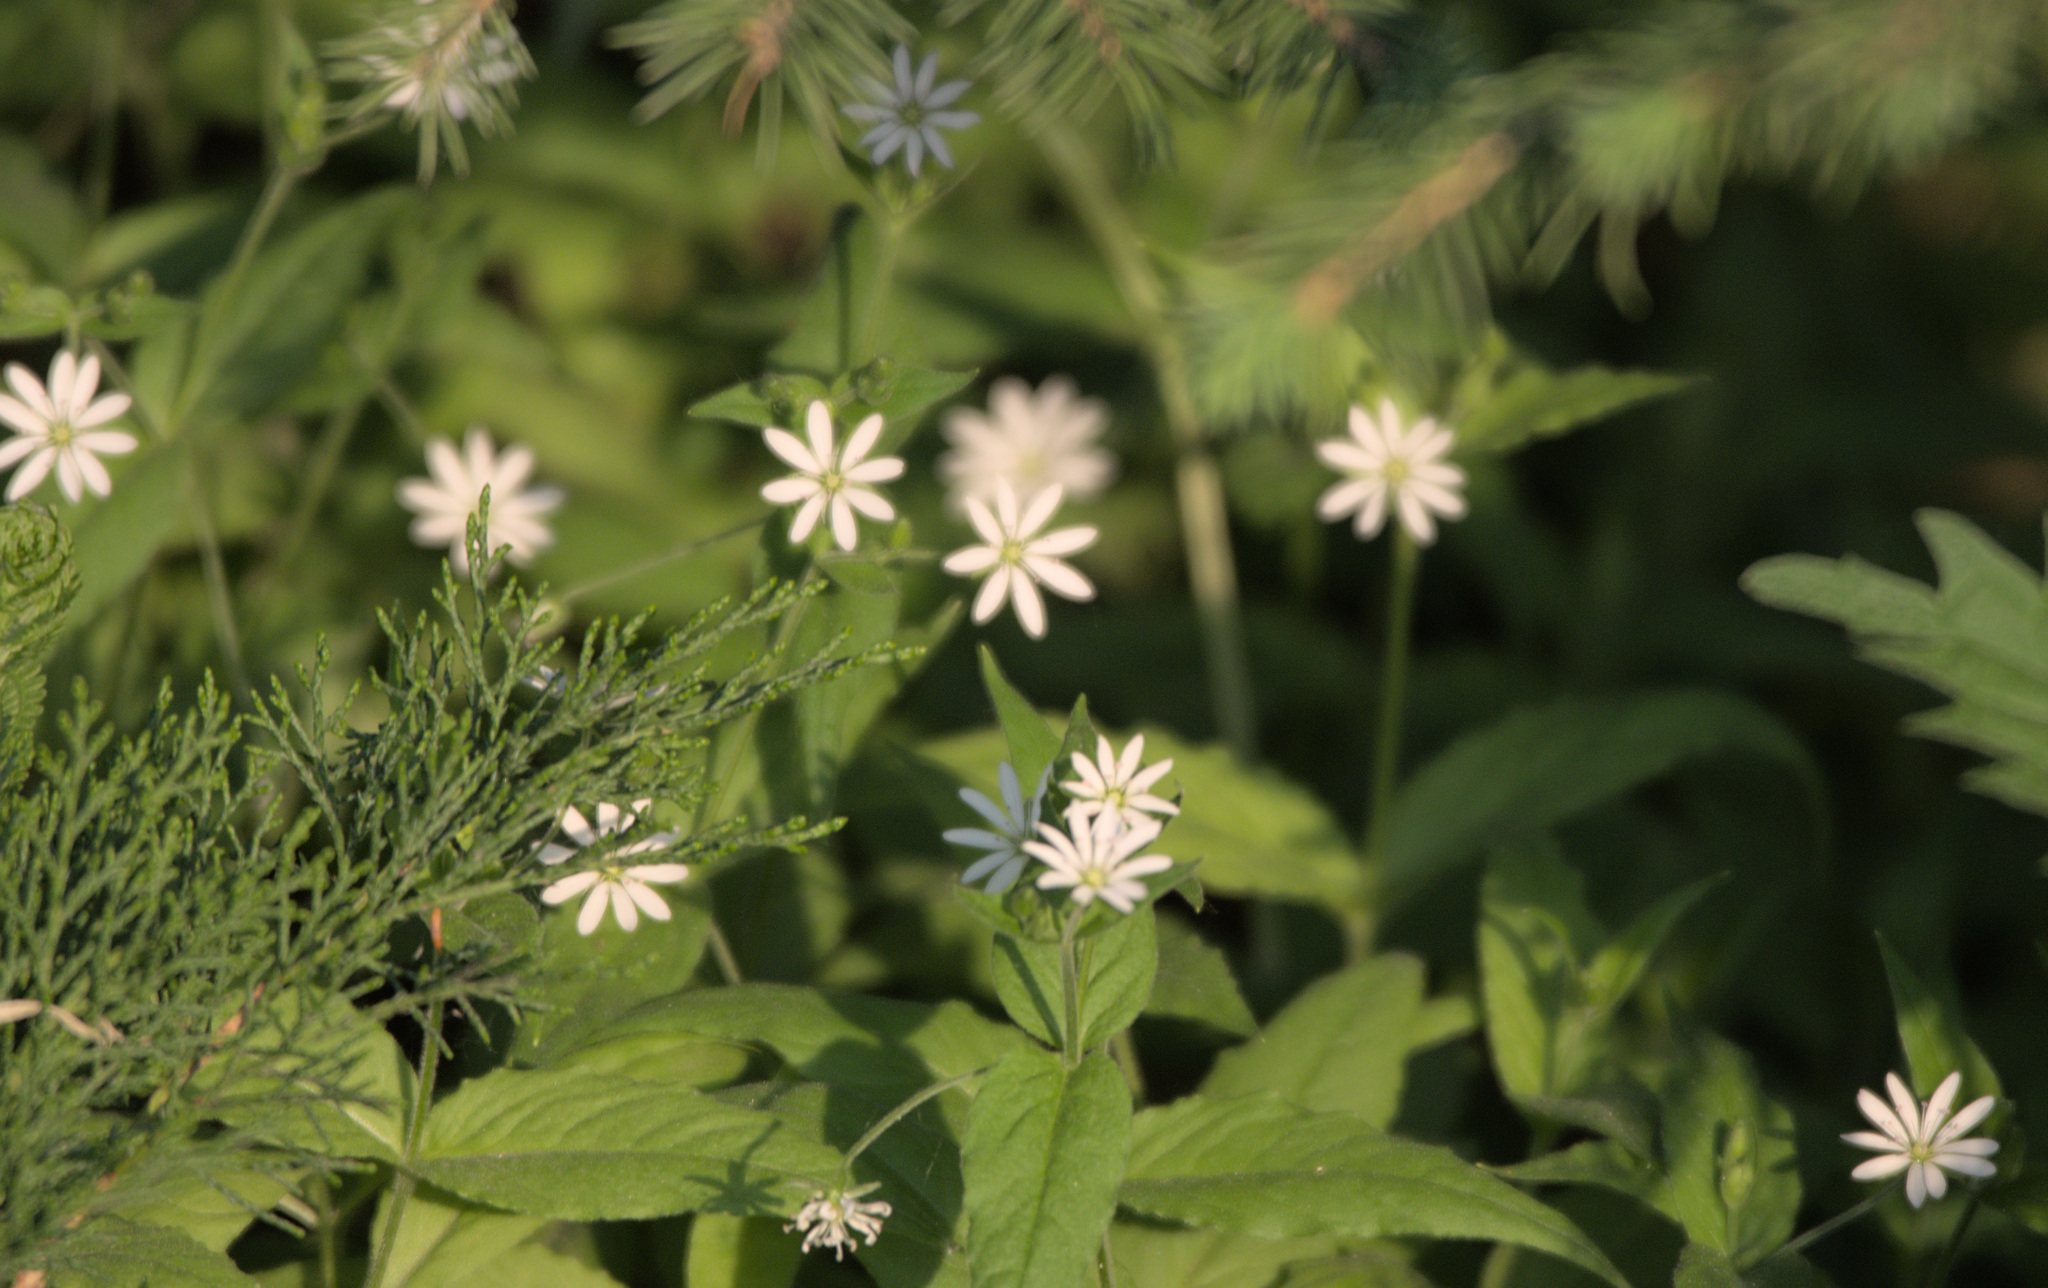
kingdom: Plantae
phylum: Tracheophyta
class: Magnoliopsida
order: Caryophyllales
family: Caryophyllaceae
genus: Stellaria
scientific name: Stellaria bungeana
